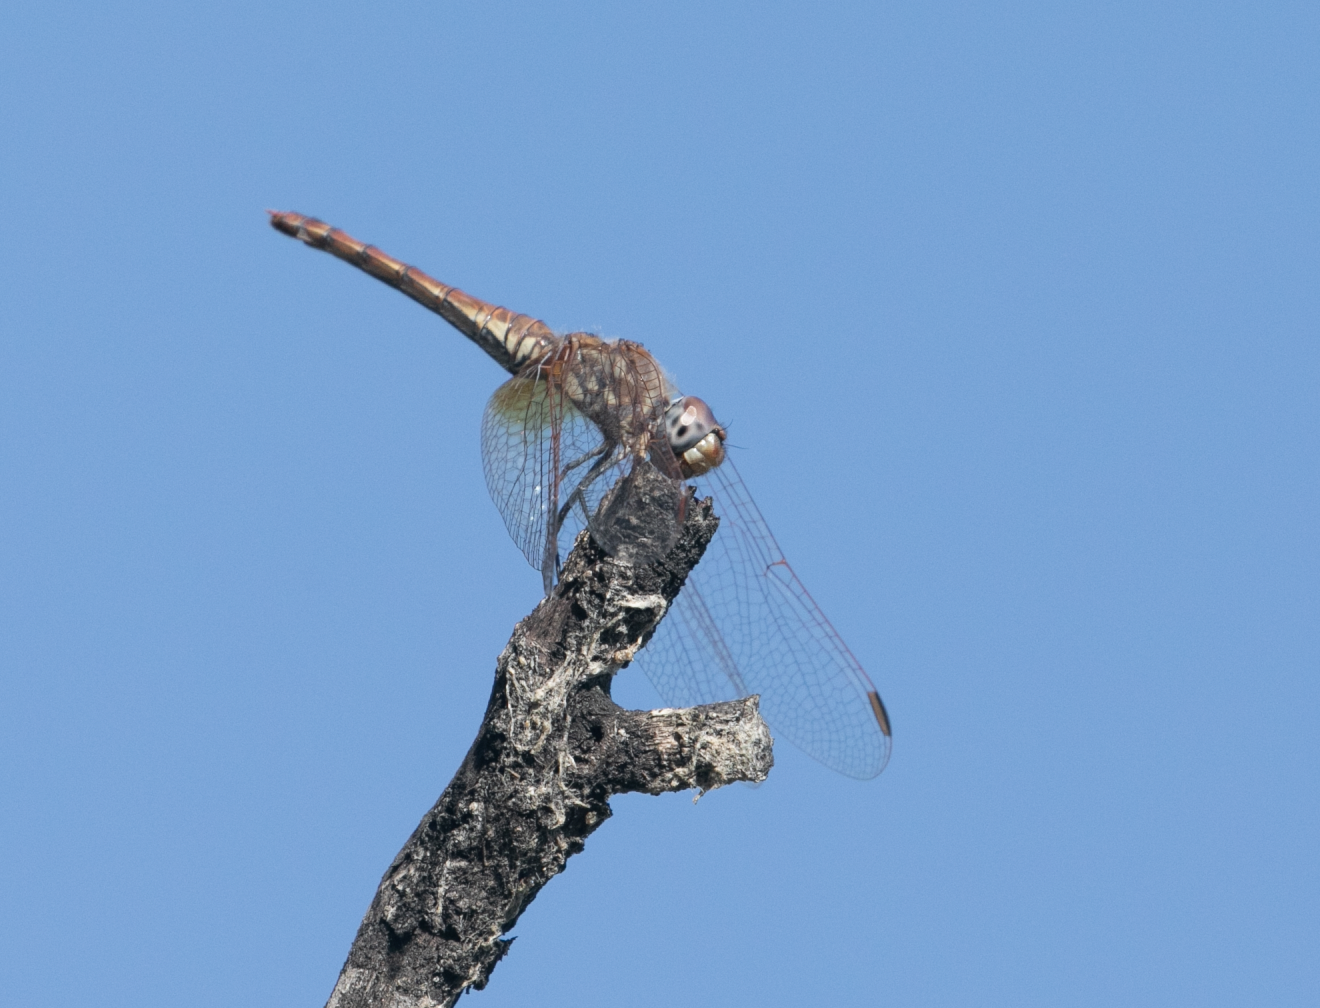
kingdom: Animalia
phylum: Arthropoda
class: Insecta
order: Odonata
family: Libellulidae
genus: Trithemis
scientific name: Trithemis annulata
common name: Violet dropwing
